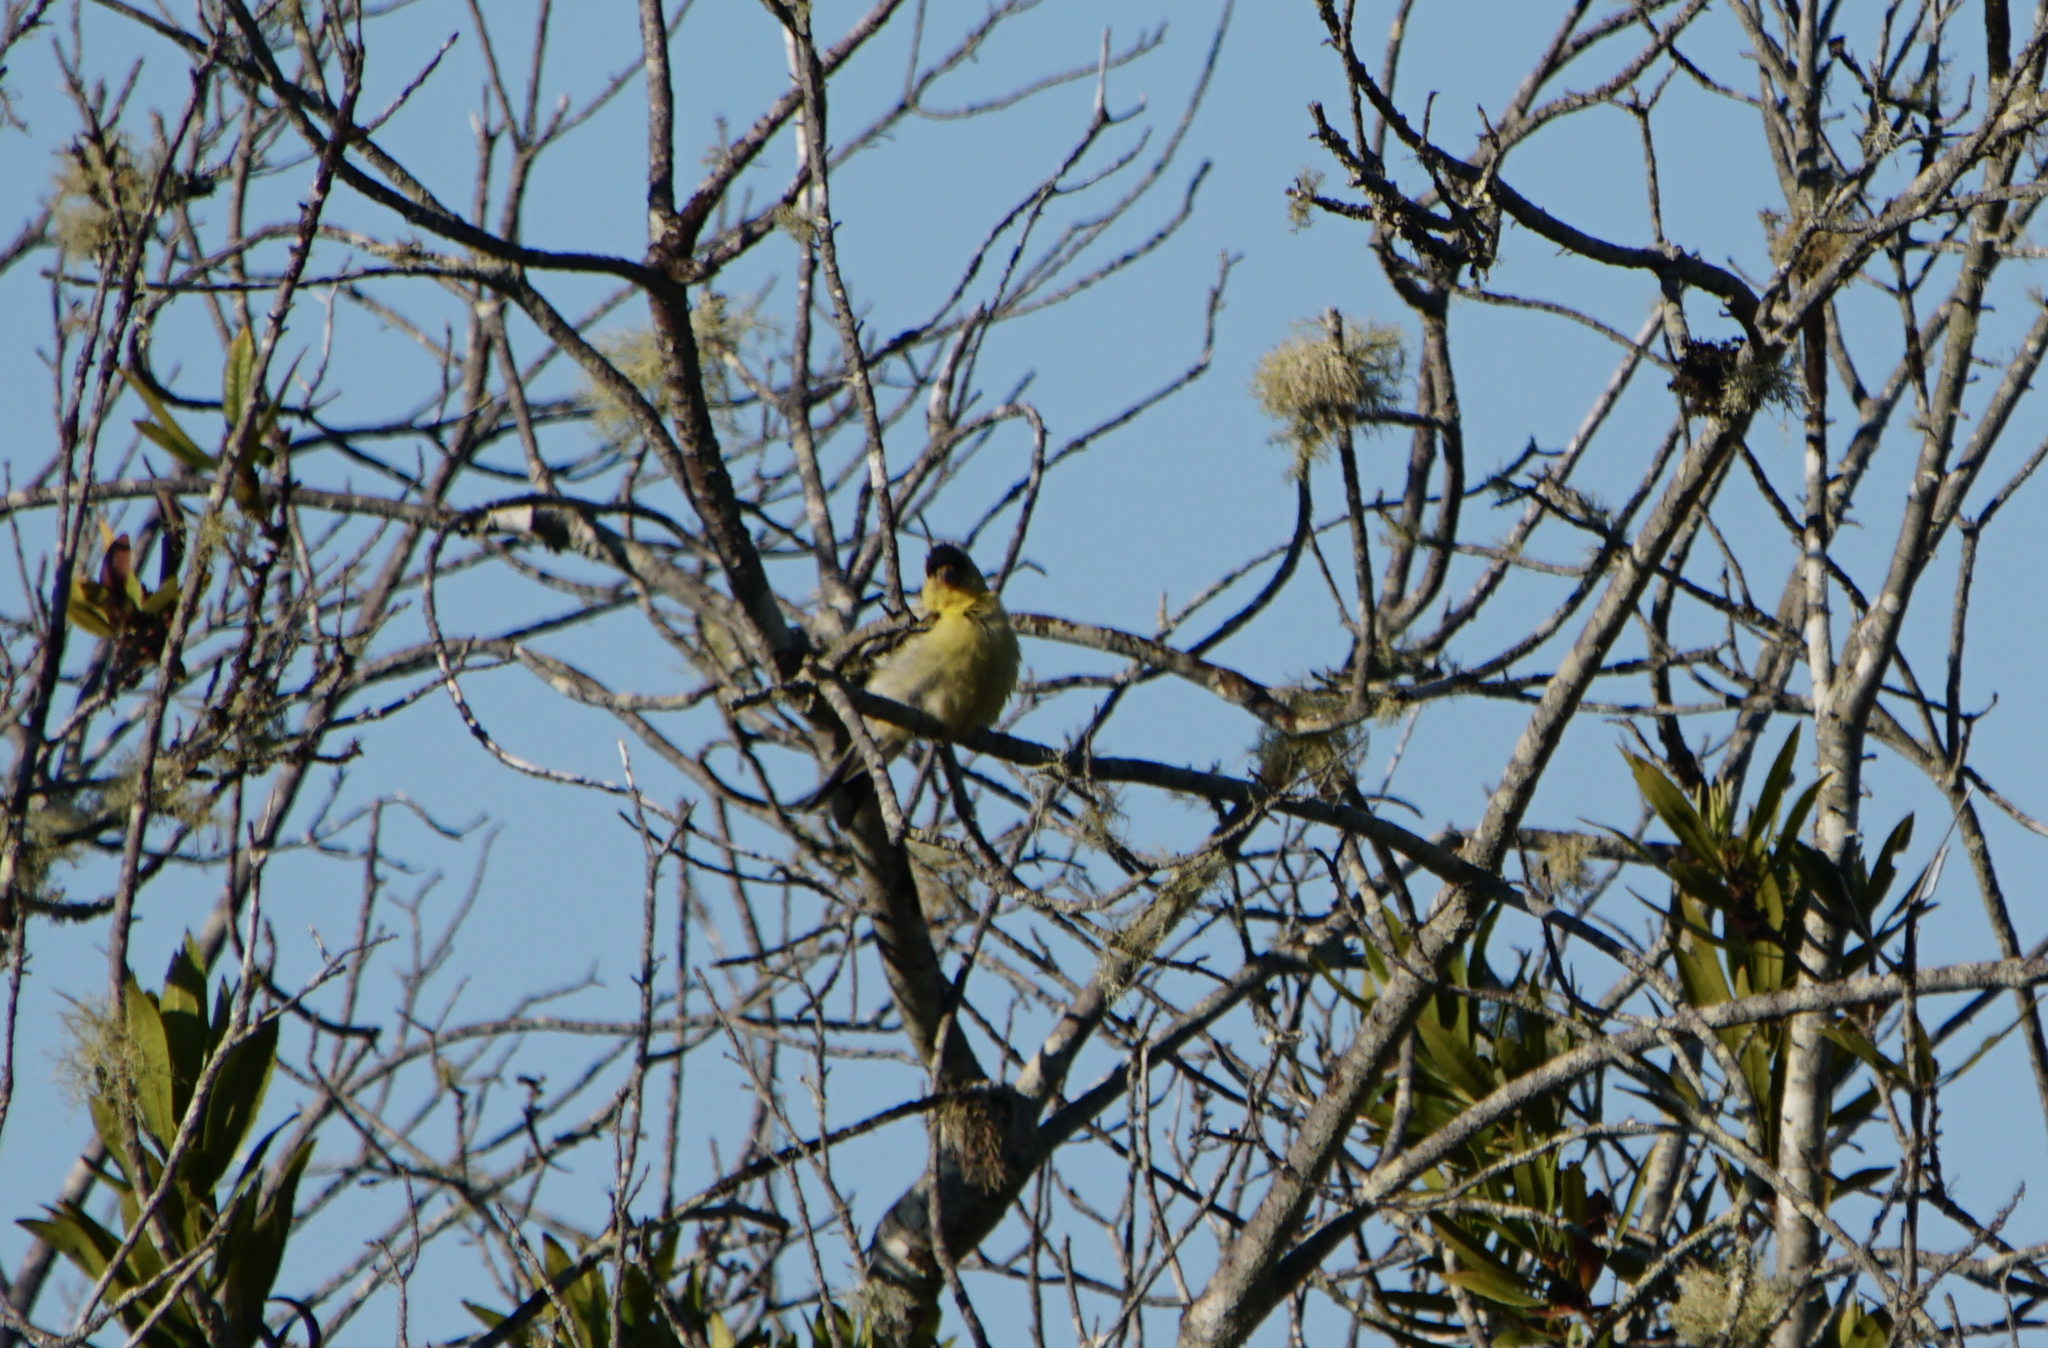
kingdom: Animalia
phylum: Chordata
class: Aves
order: Passeriformes
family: Fringillidae
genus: Spinus
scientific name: Spinus psaltria
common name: Lesser goldfinch
